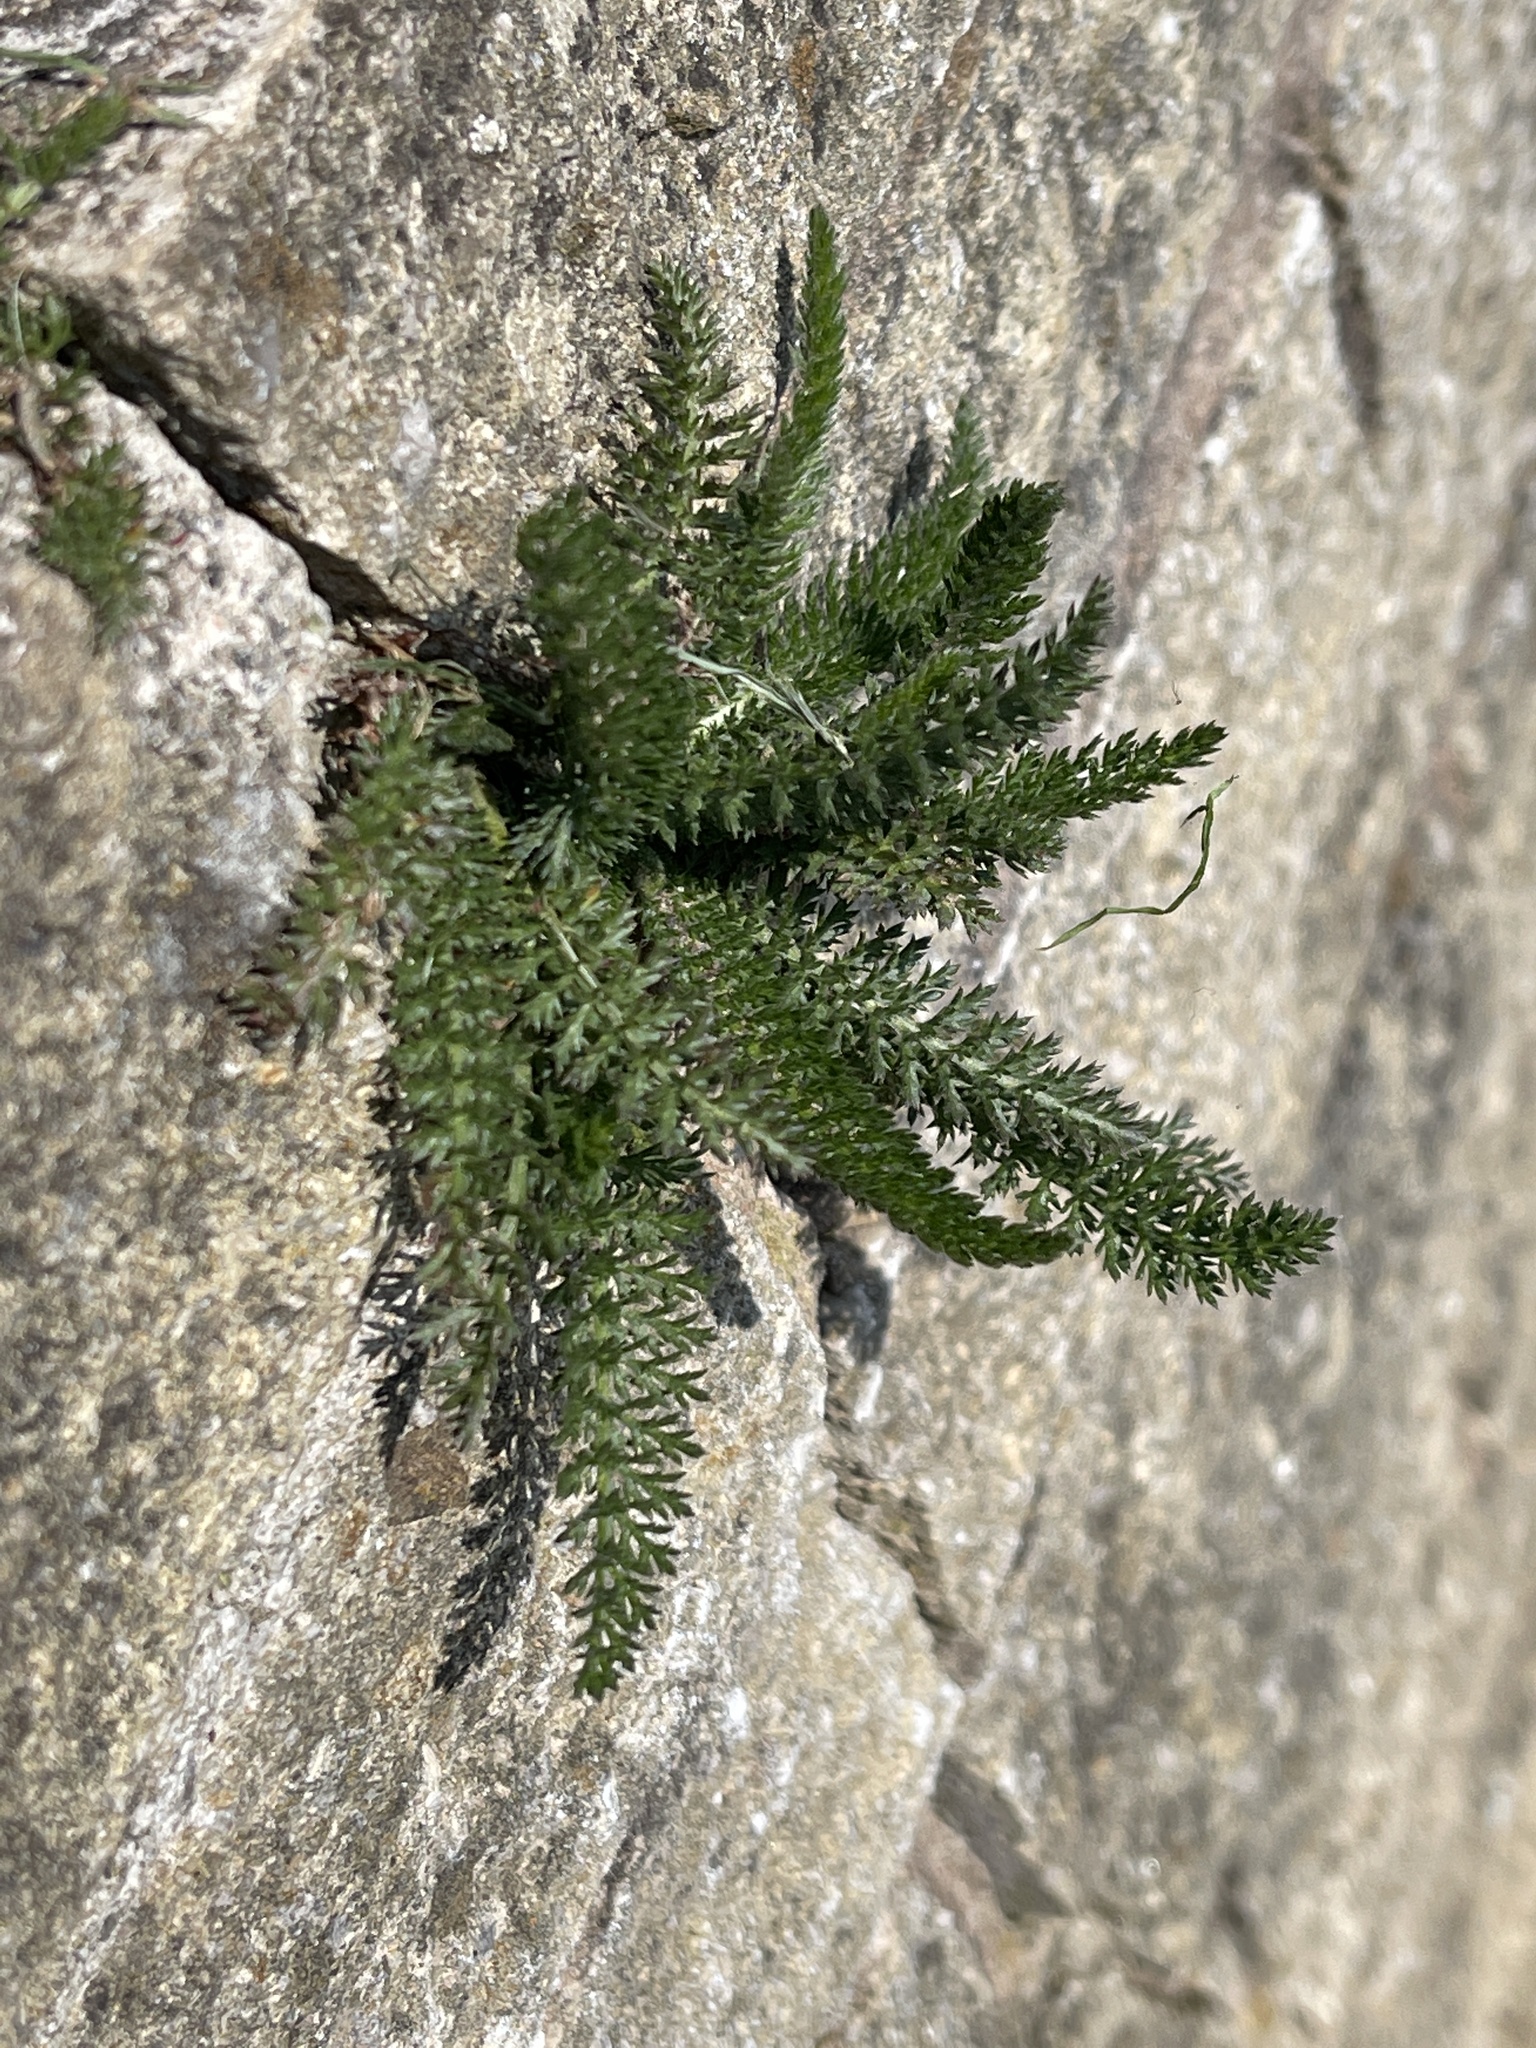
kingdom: Plantae
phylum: Tracheophyta
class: Magnoliopsida
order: Asterales
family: Asteraceae
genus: Achillea
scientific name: Achillea millefolium
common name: Yarrow
